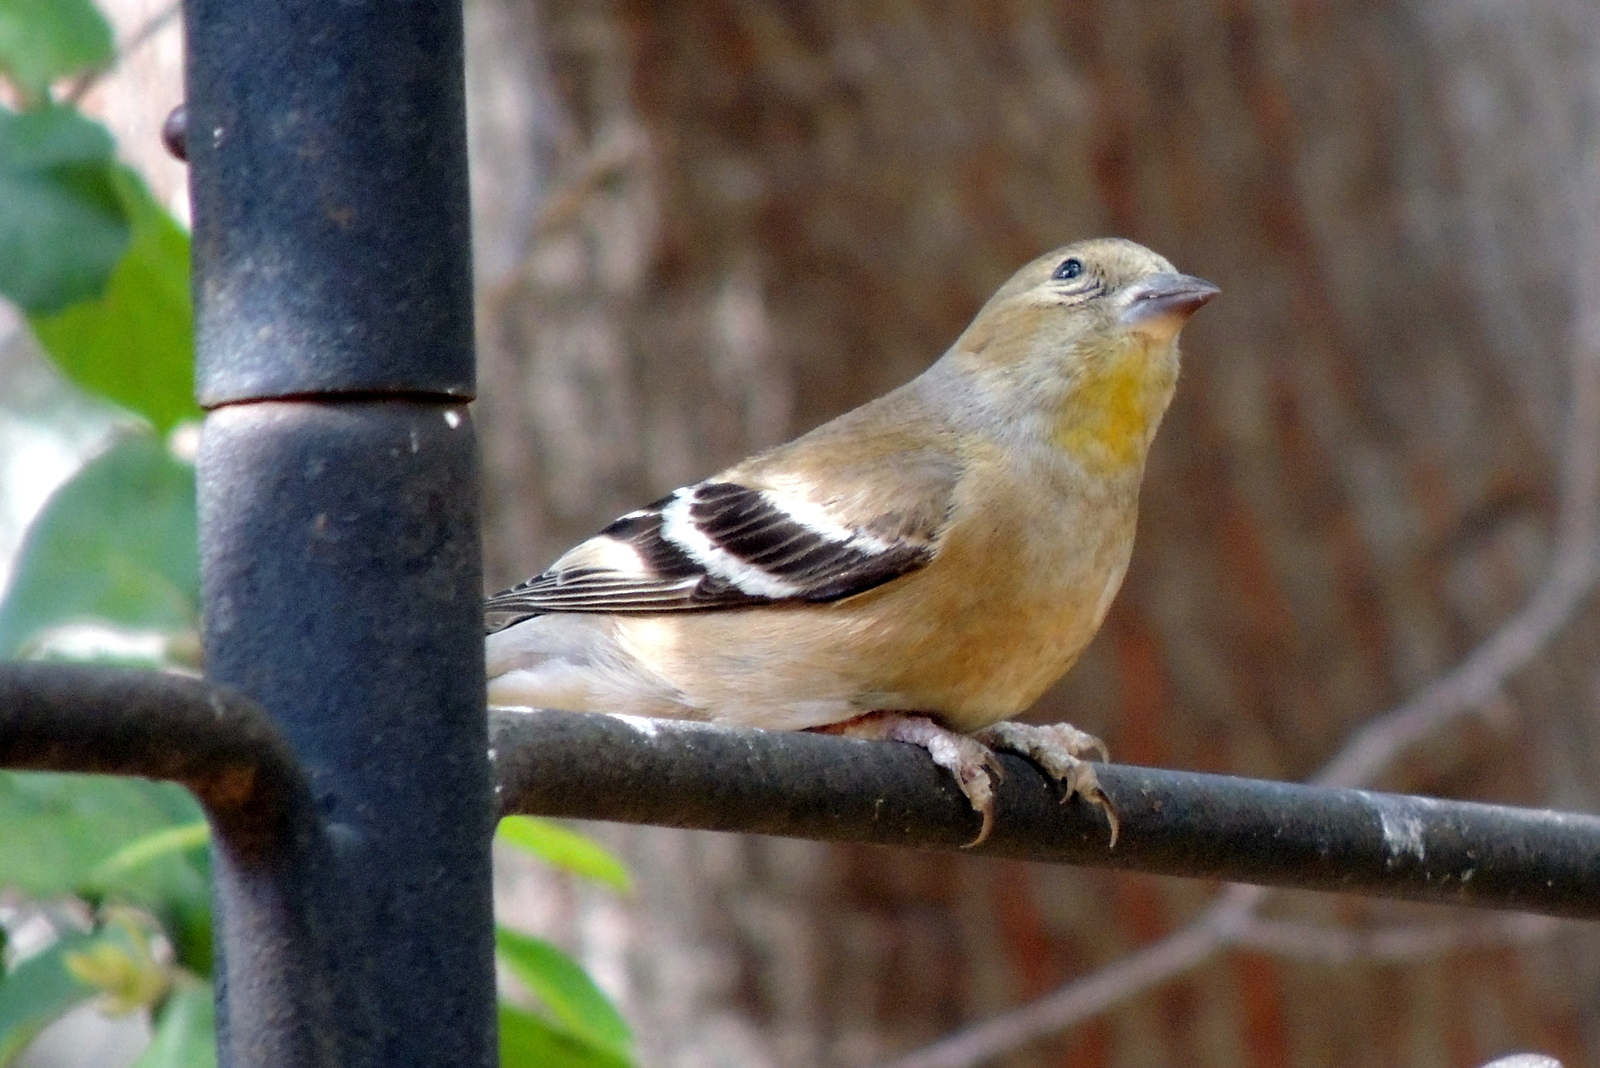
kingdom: Animalia
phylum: Chordata
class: Aves
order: Passeriformes
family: Fringillidae
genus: Spinus
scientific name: Spinus tristis
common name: American goldfinch
